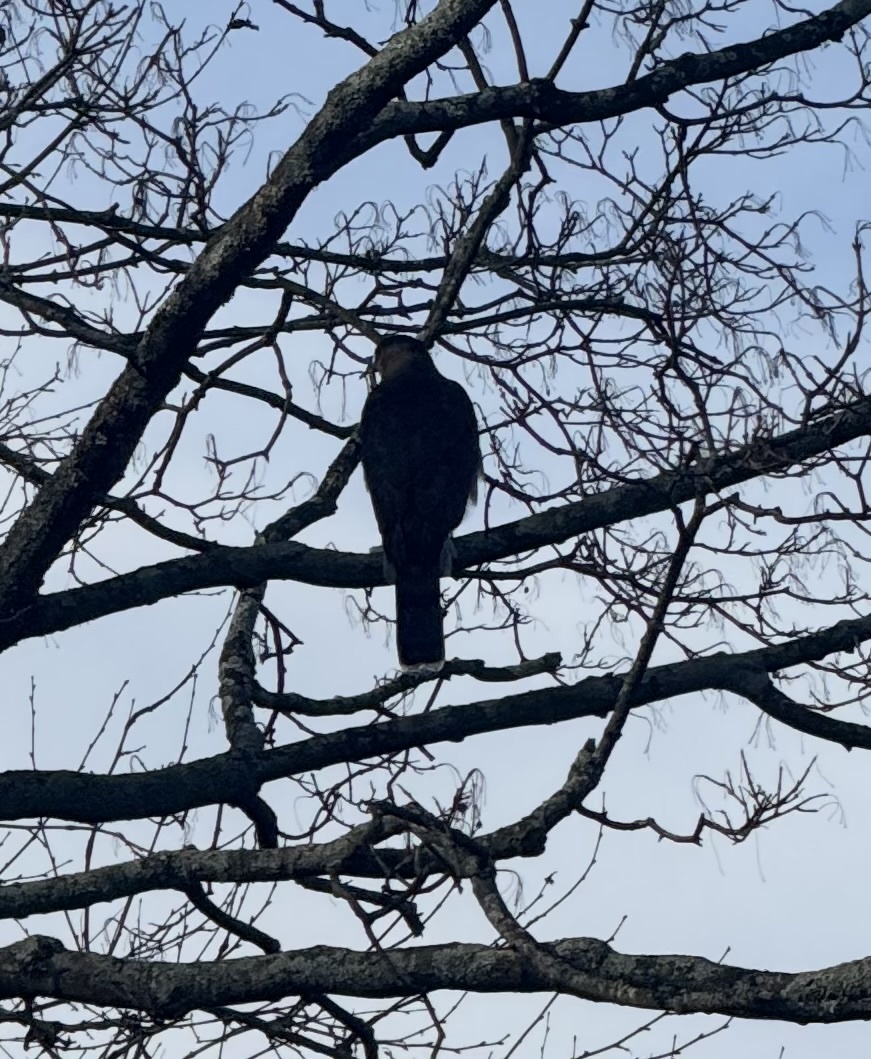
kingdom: Animalia
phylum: Chordata
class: Aves
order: Accipitriformes
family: Accipitridae
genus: Accipiter
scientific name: Accipiter cooperii
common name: Cooper's hawk
